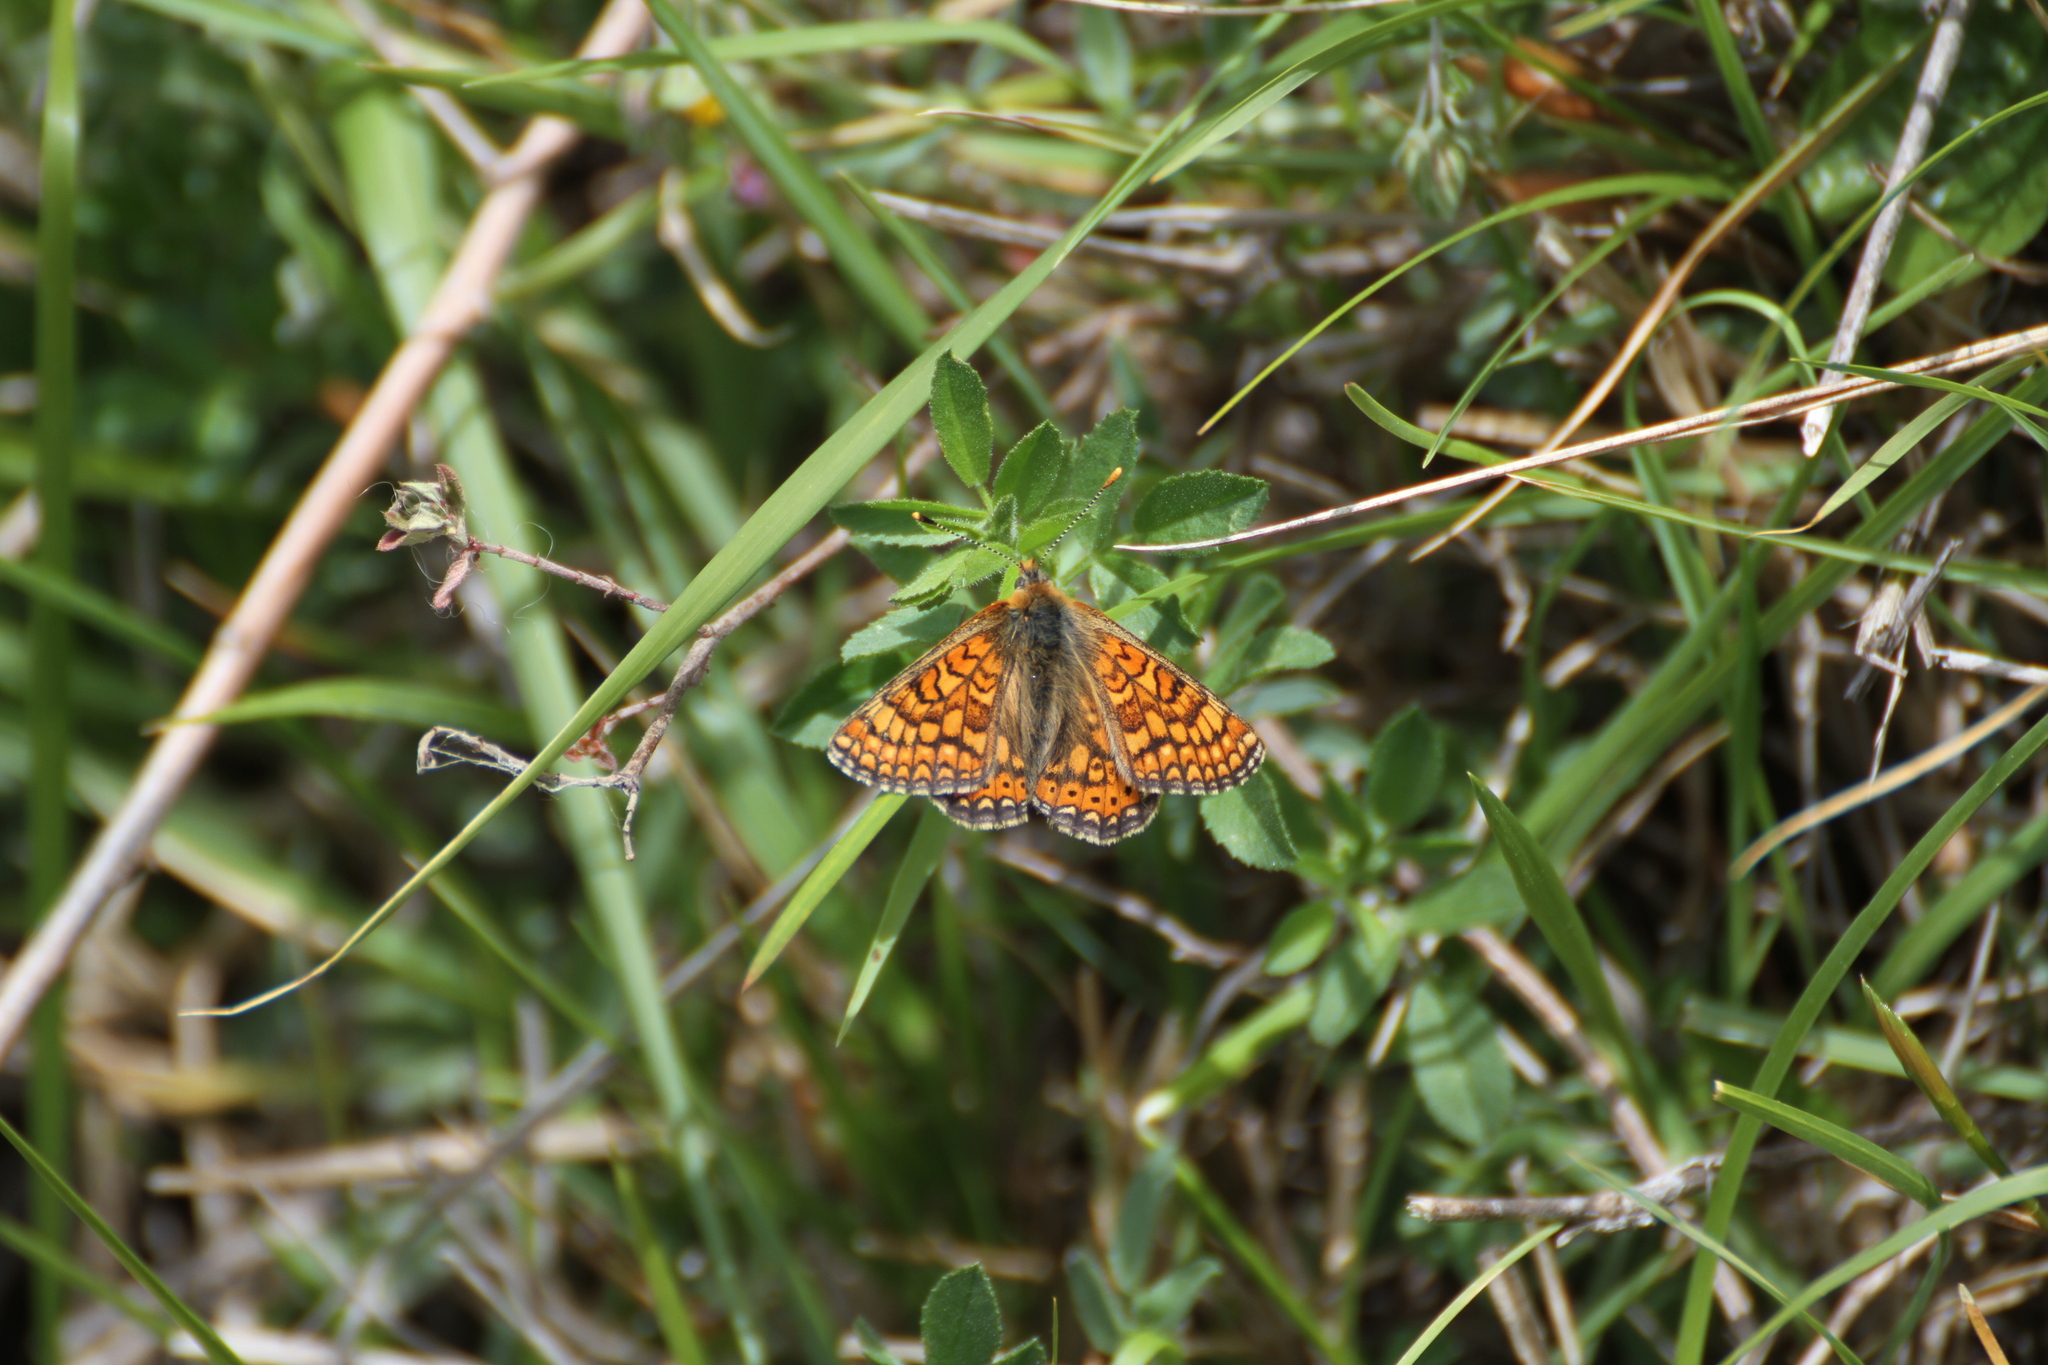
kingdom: Animalia
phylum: Arthropoda
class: Insecta
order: Lepidoptera
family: Nymphalidae
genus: Euphydryas
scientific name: Euphydryas aurinia
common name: Marsh fritillary
